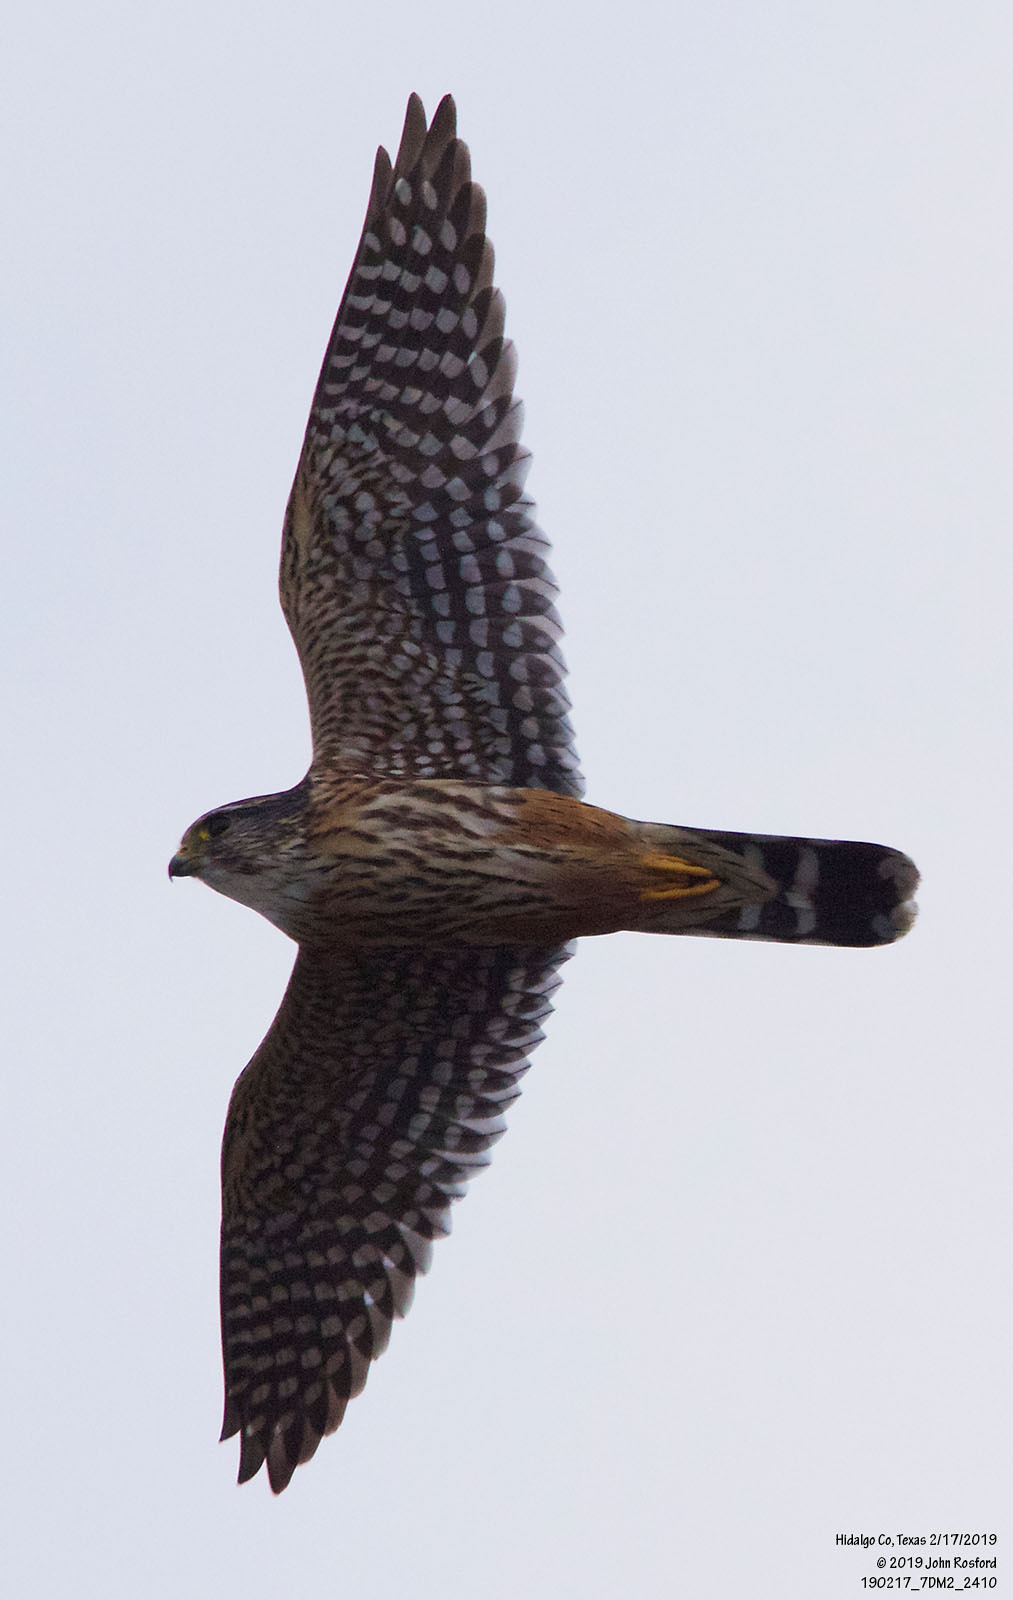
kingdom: Animalia
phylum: Chordata
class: Aves
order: Falconiformes
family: Falconidae
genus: Falco
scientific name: Falco columbarius
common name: Merlin
